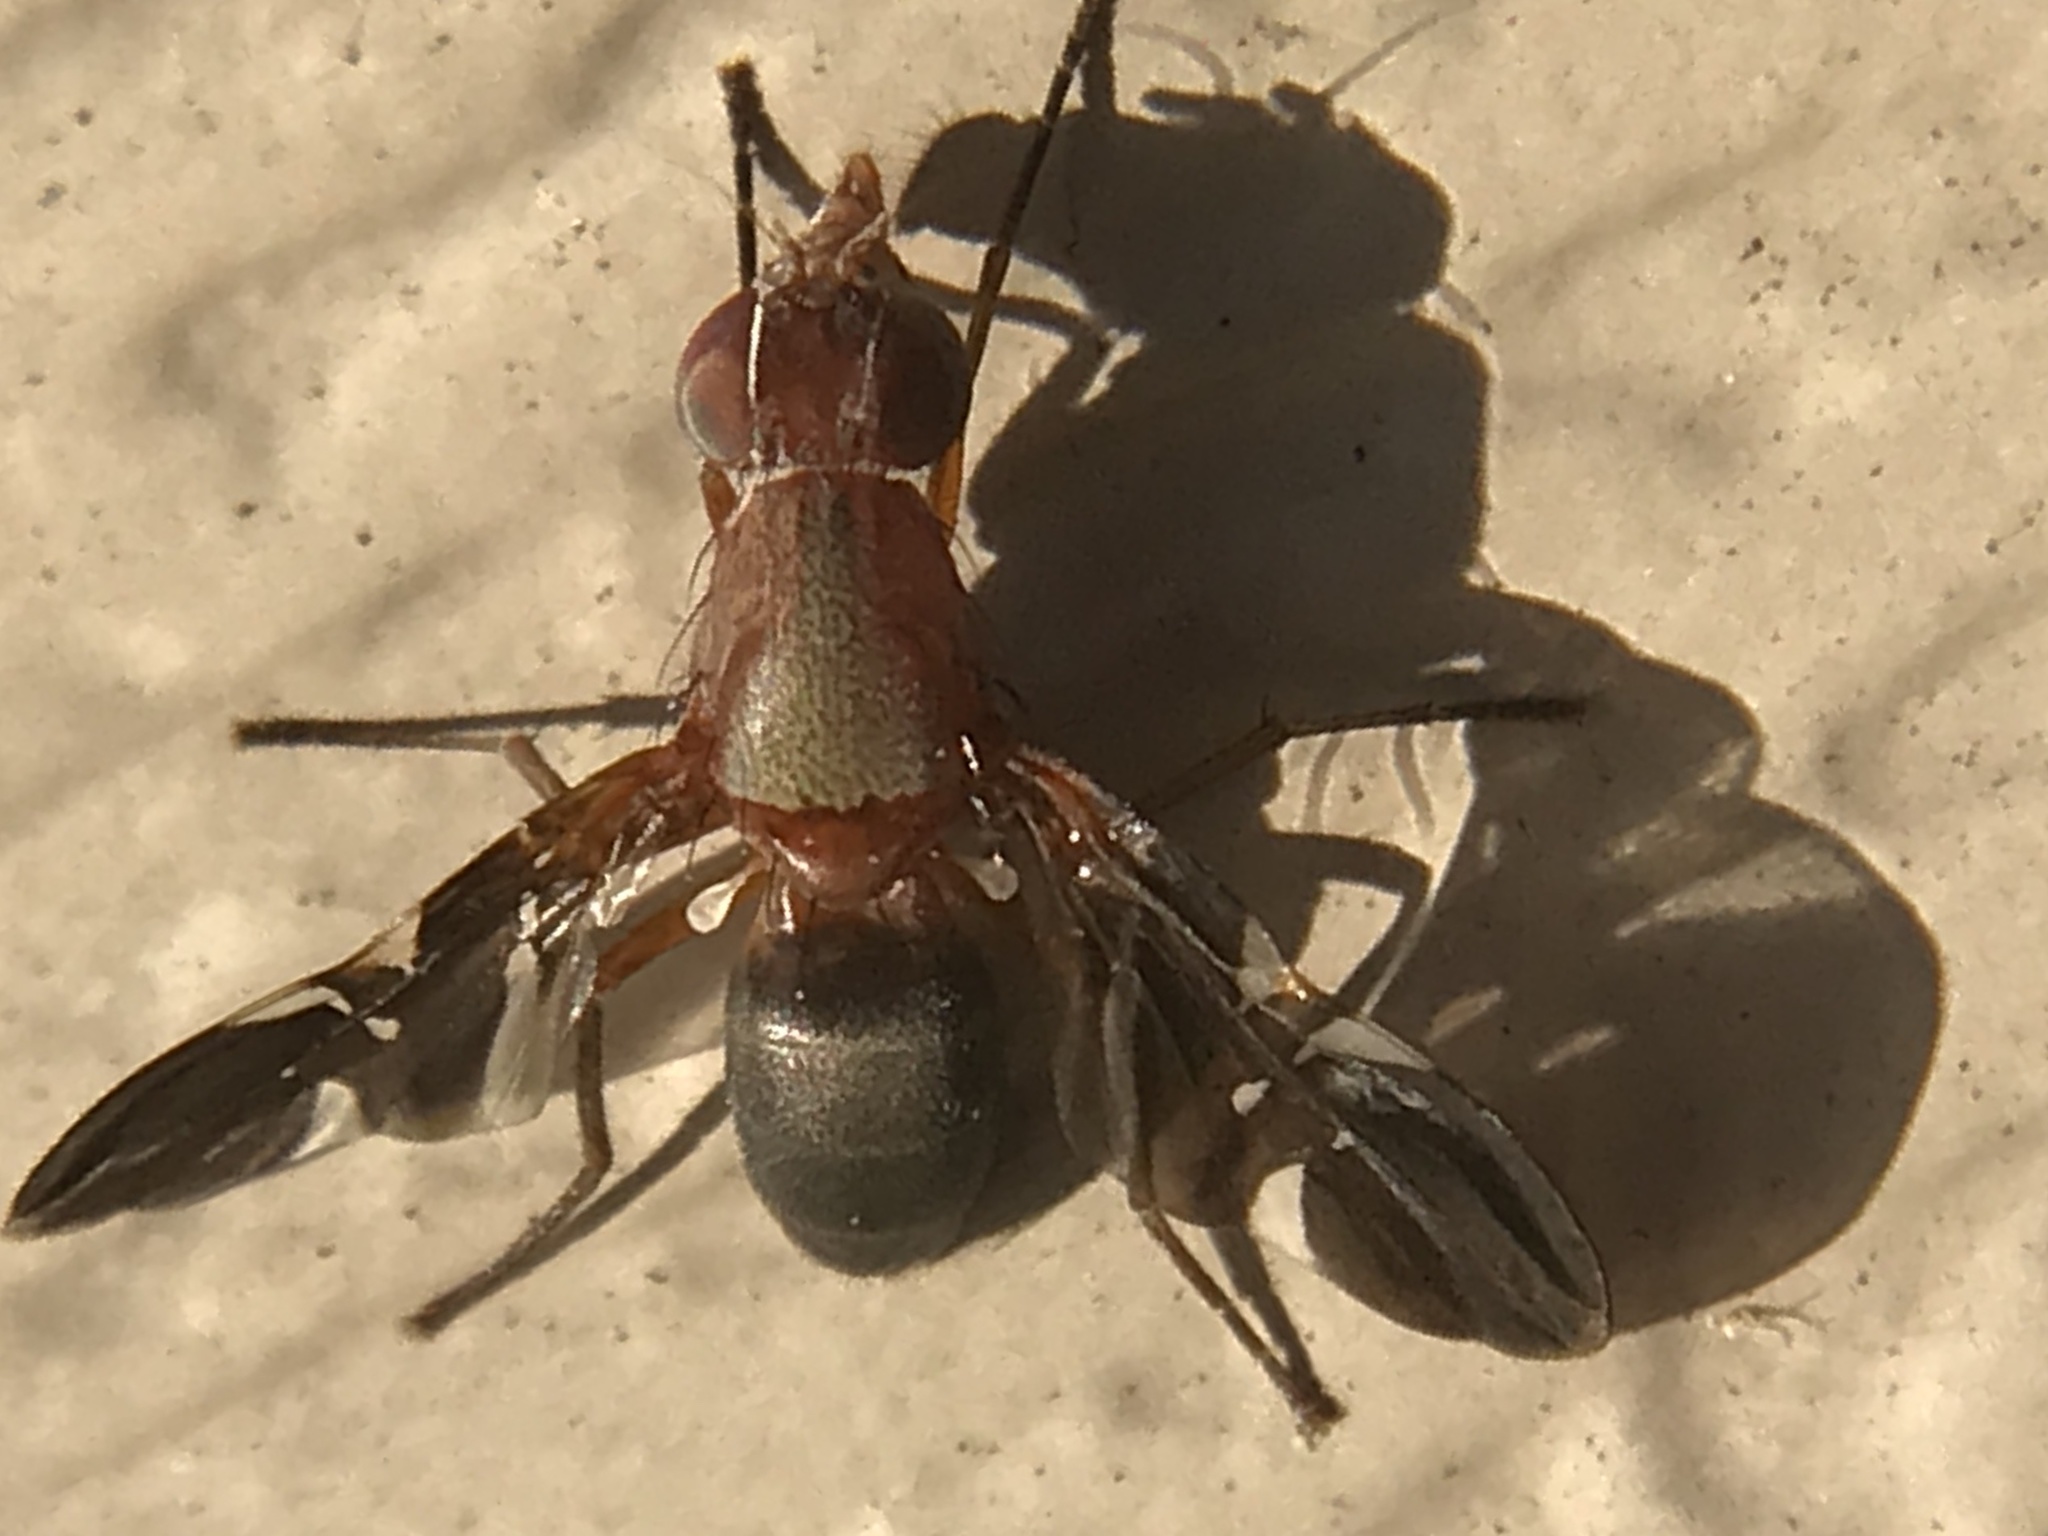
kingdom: Animalia
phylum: Arthropoda
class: Insecta
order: Diptera
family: Ulidiidae
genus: Delphinia
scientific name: Delphinia picta
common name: Common picture-winged fly
